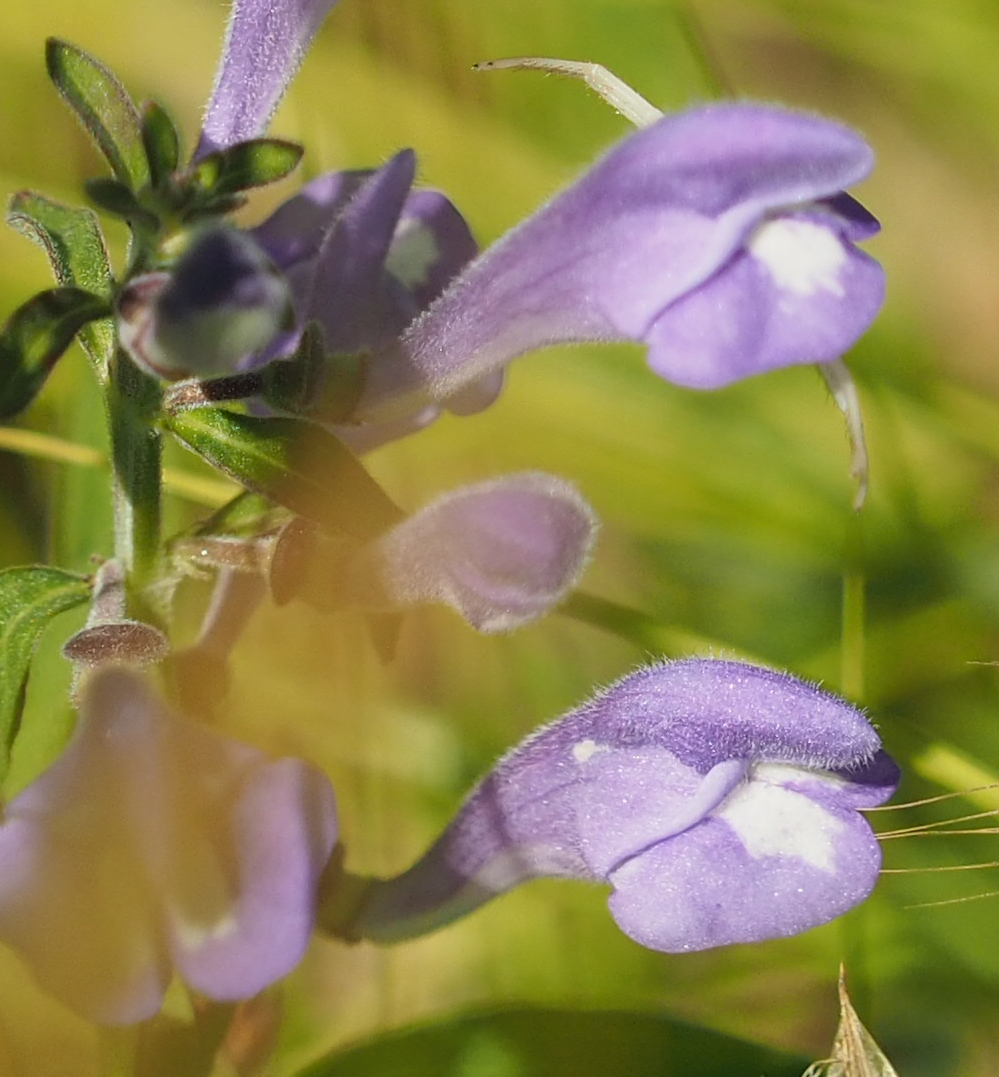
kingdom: Plantae
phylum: Tracheophyta
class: Magnoliopsida
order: Lamiales
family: Lamiaceae
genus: Scutellaria
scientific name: Scutellaria integrifolia
